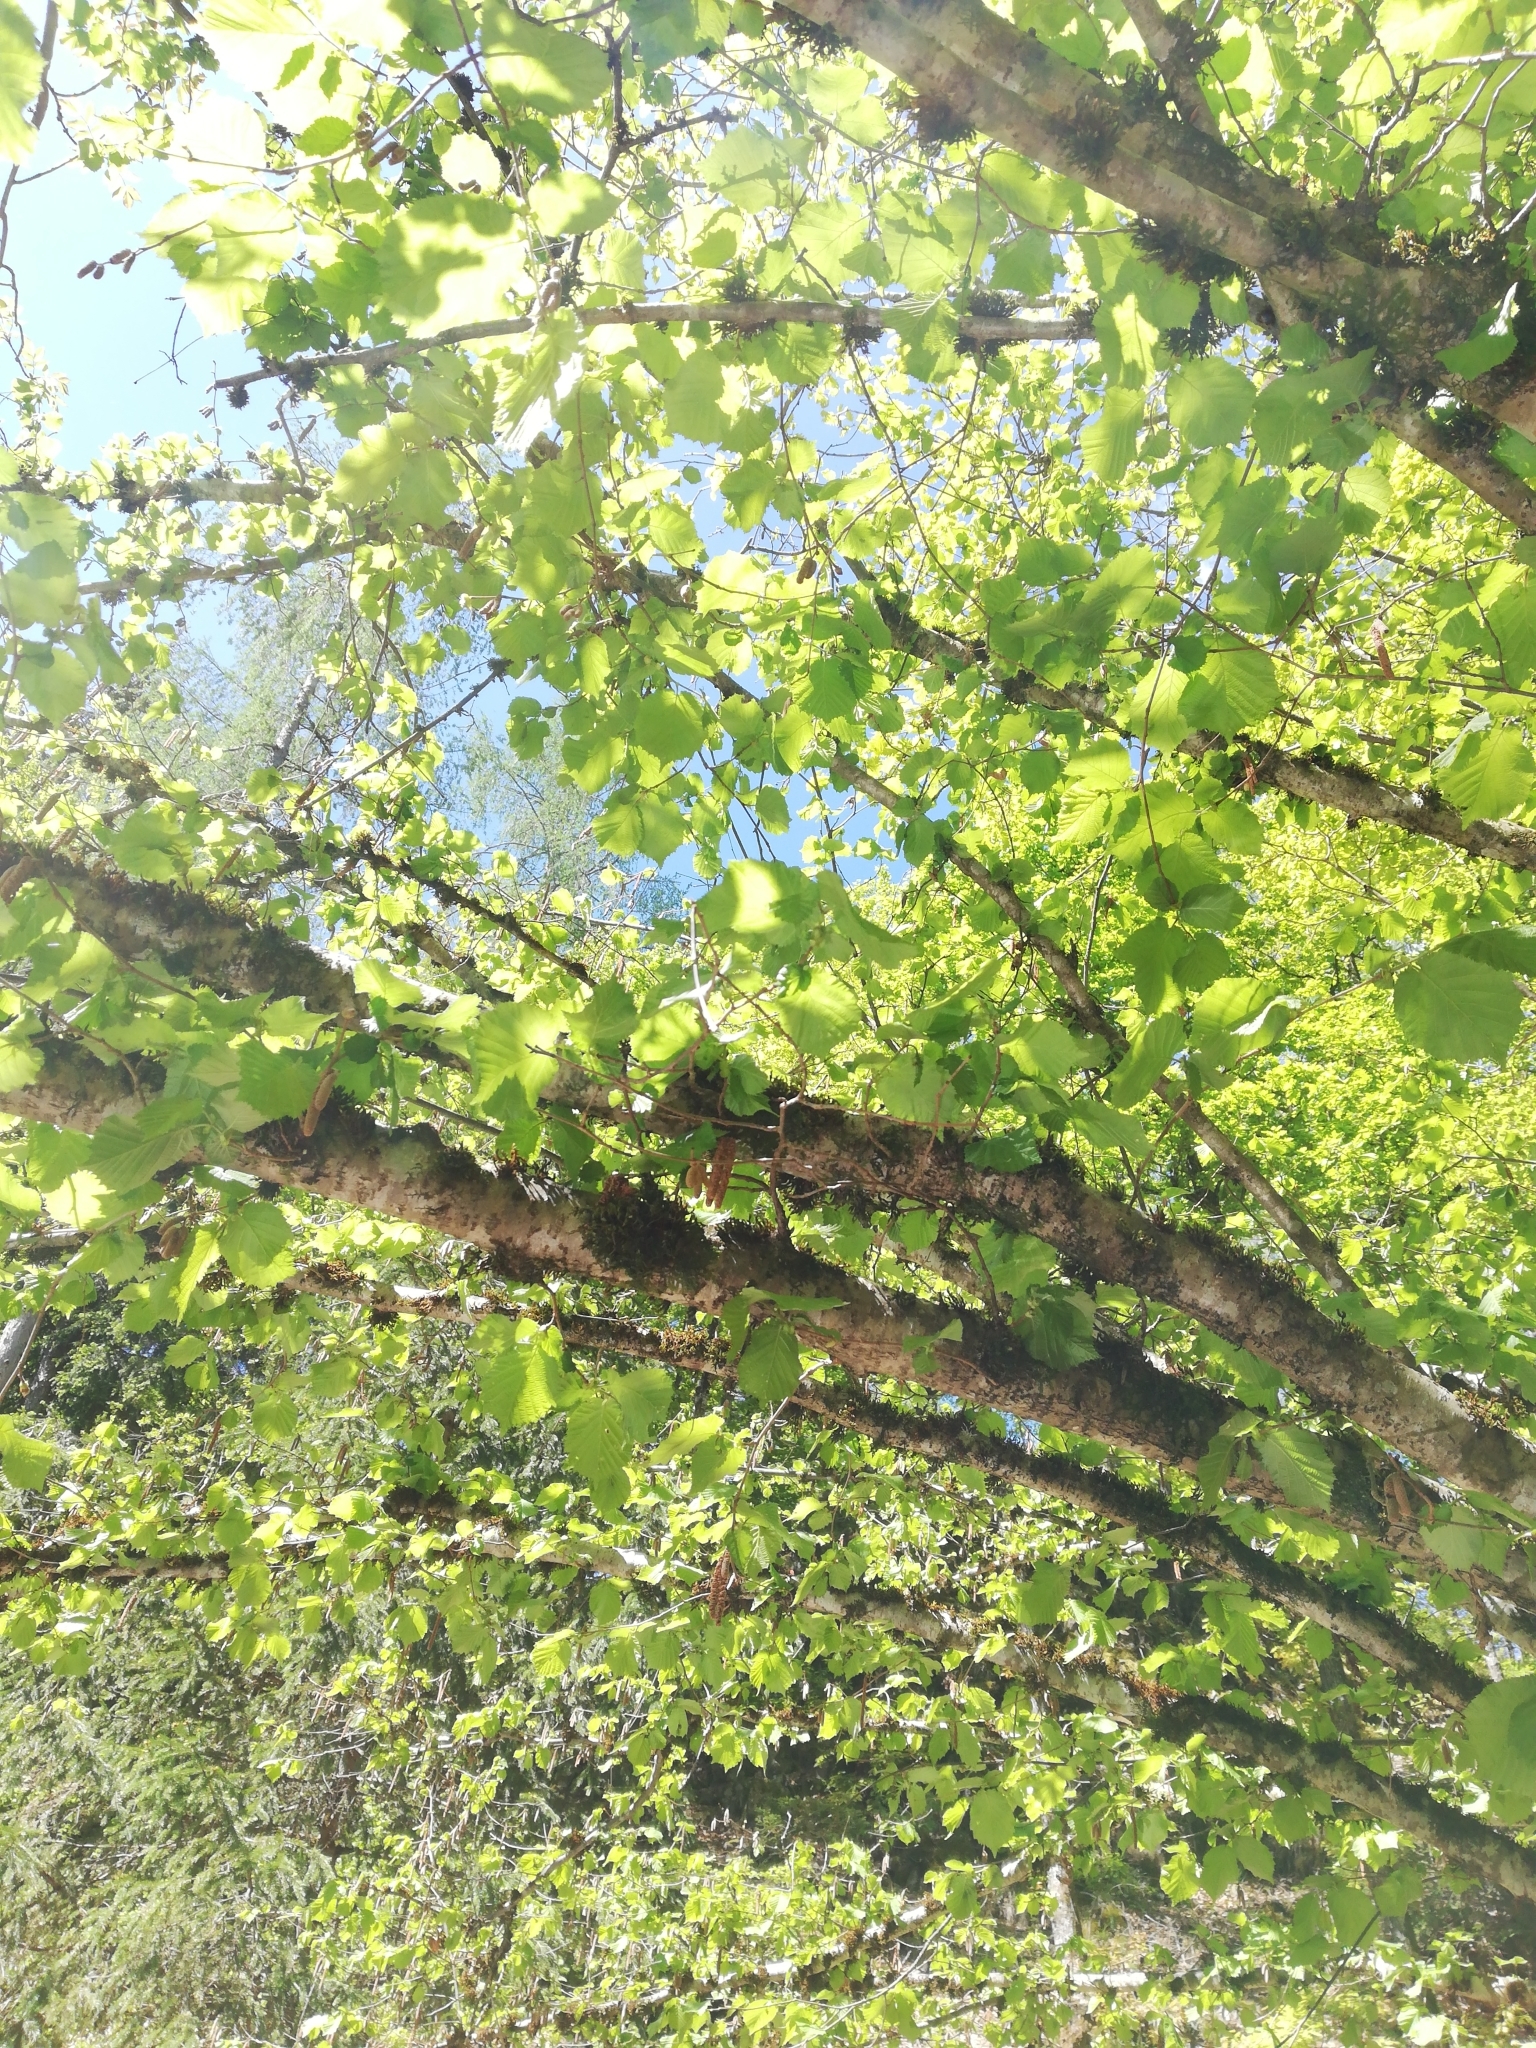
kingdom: Plantae
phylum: Tracheophyta
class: Magnoliopsida
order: Fagales
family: Betulaceae
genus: Corylus
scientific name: Corylus avellana
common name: European hazel
